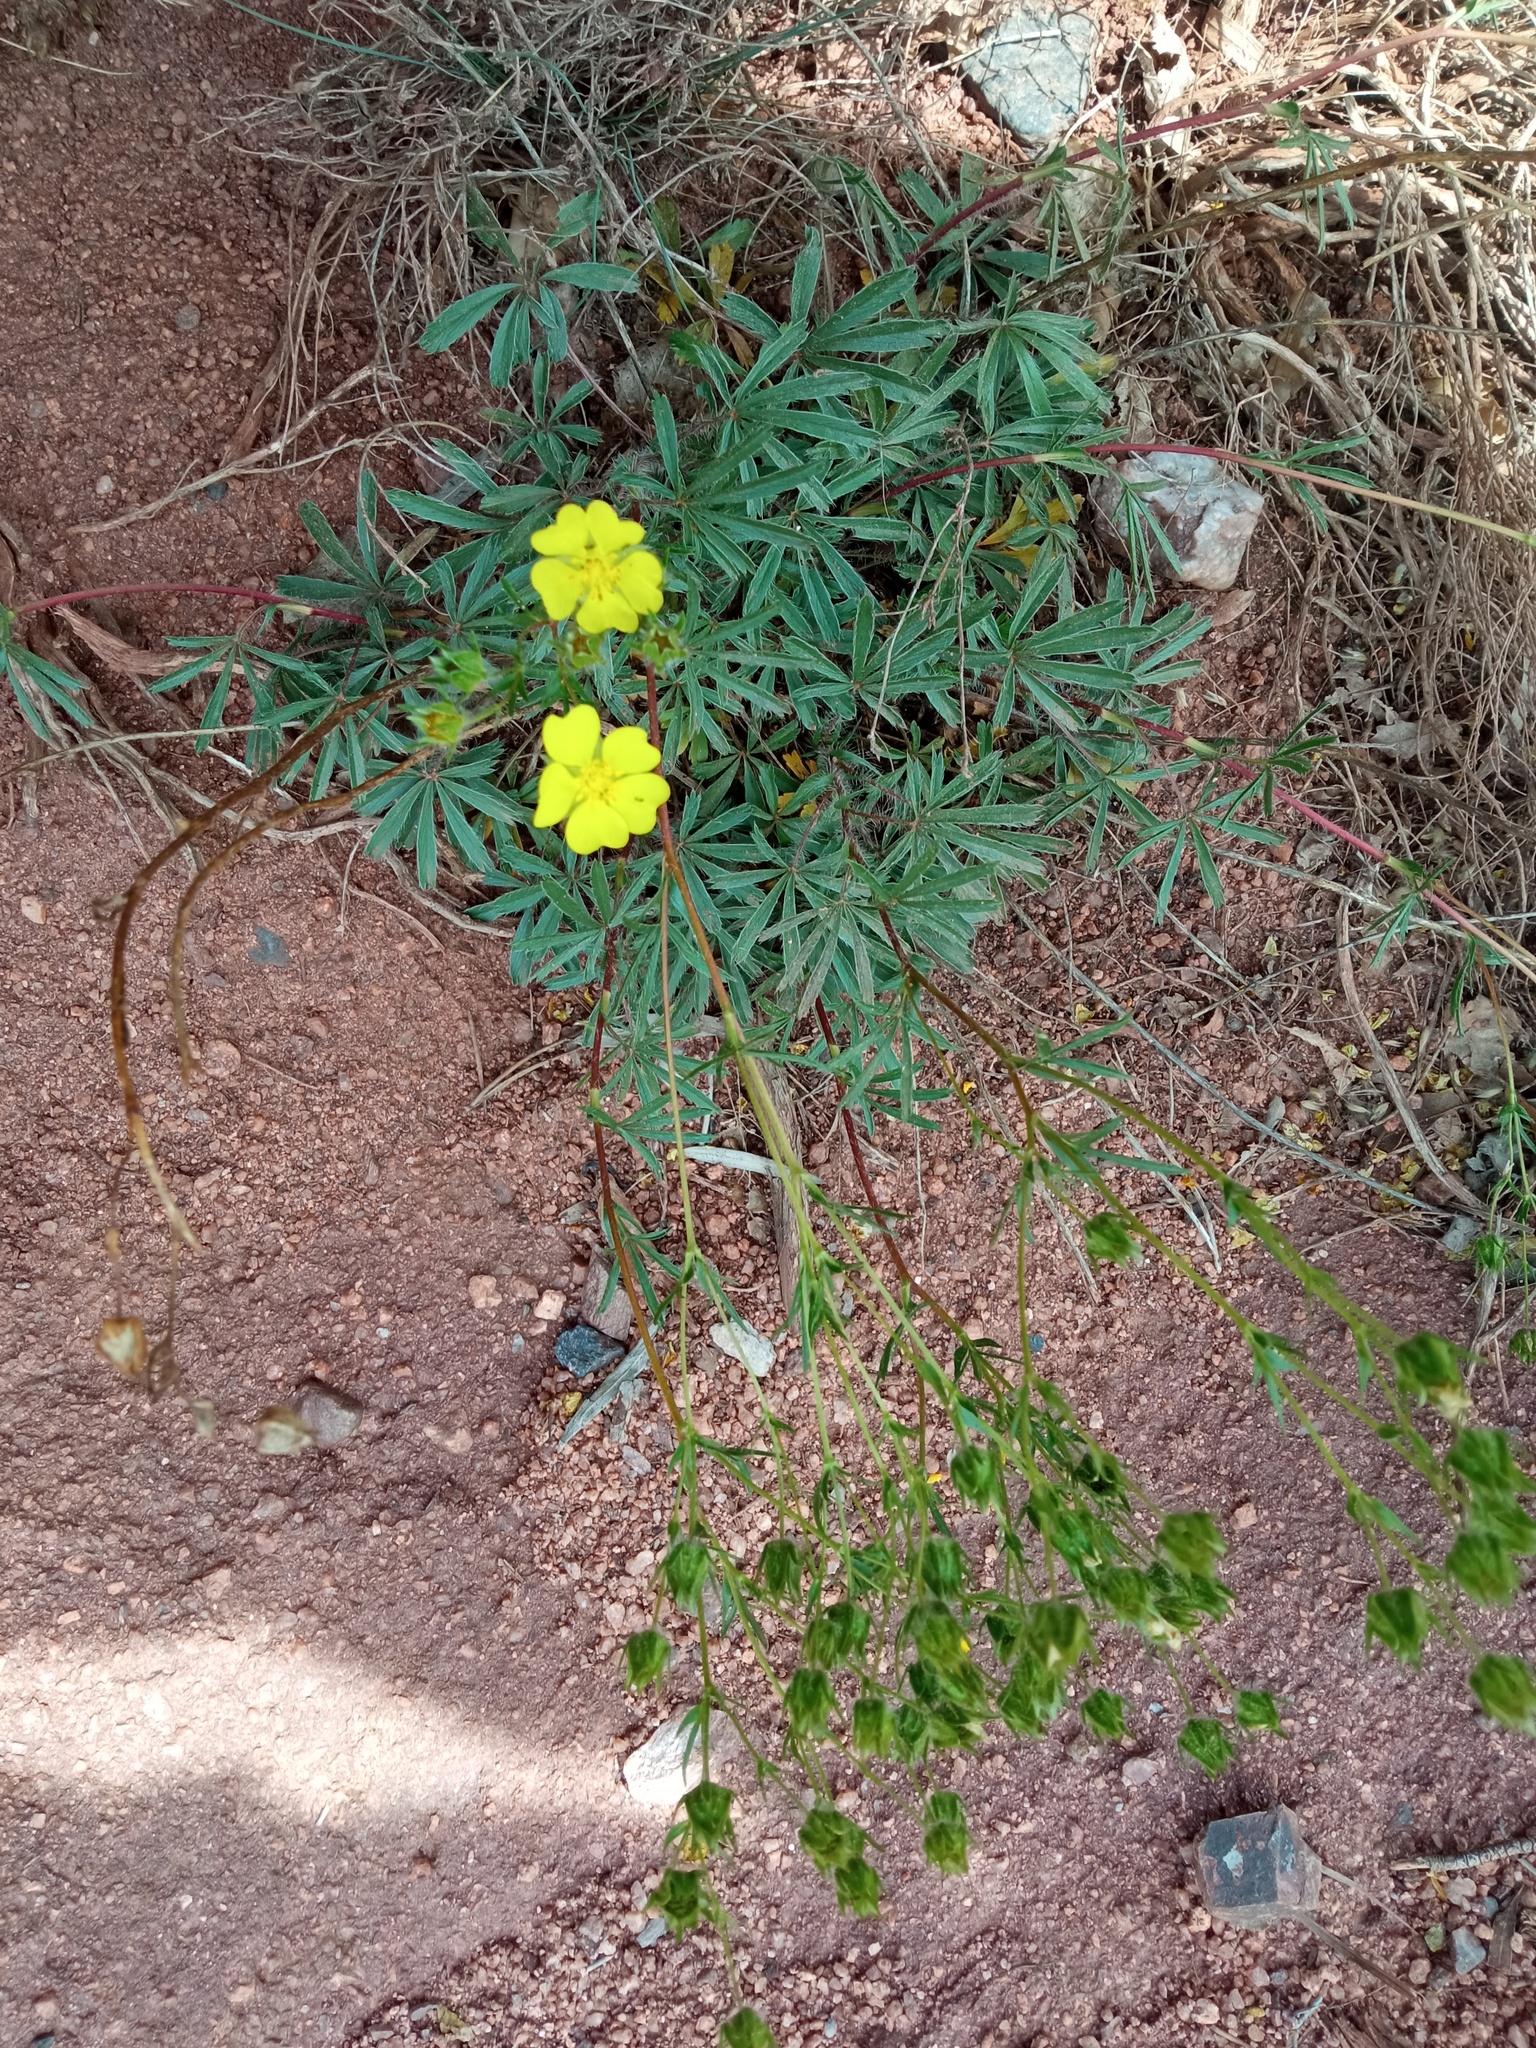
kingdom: Plantae
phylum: Tracheophyta
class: Magnoliopsida
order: Rosales
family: Rosaceae
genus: Potentilla
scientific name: Potentilla hirta
